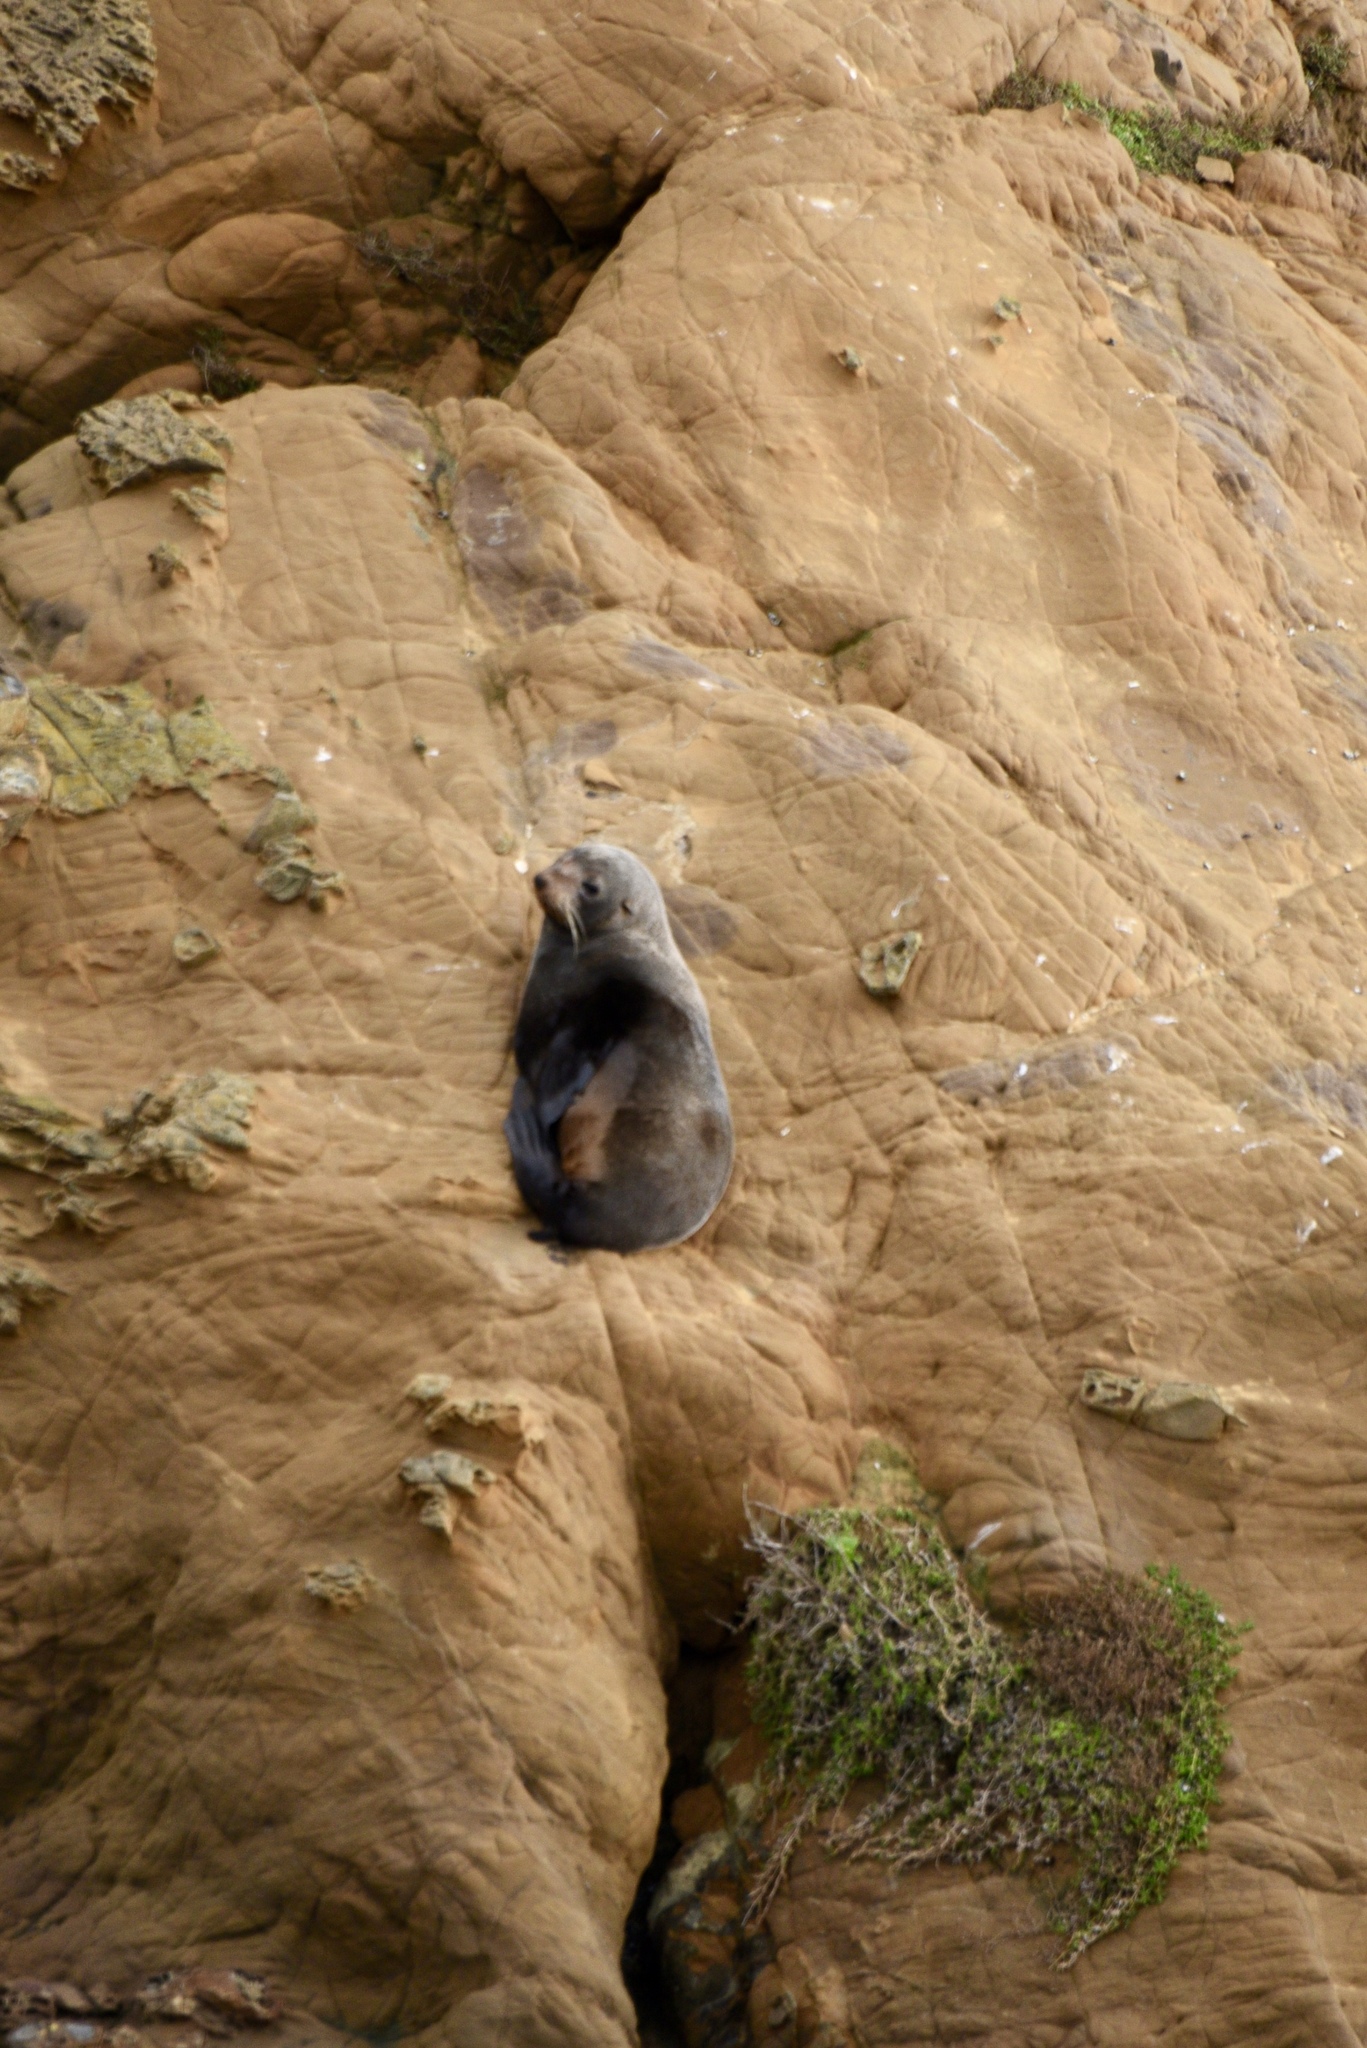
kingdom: Animalia
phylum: Chordata
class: Mammalia
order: Carnivora
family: Otariidae
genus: Arctocephalus
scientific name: Arctocephalus forsteri
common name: New zealand fur seal
